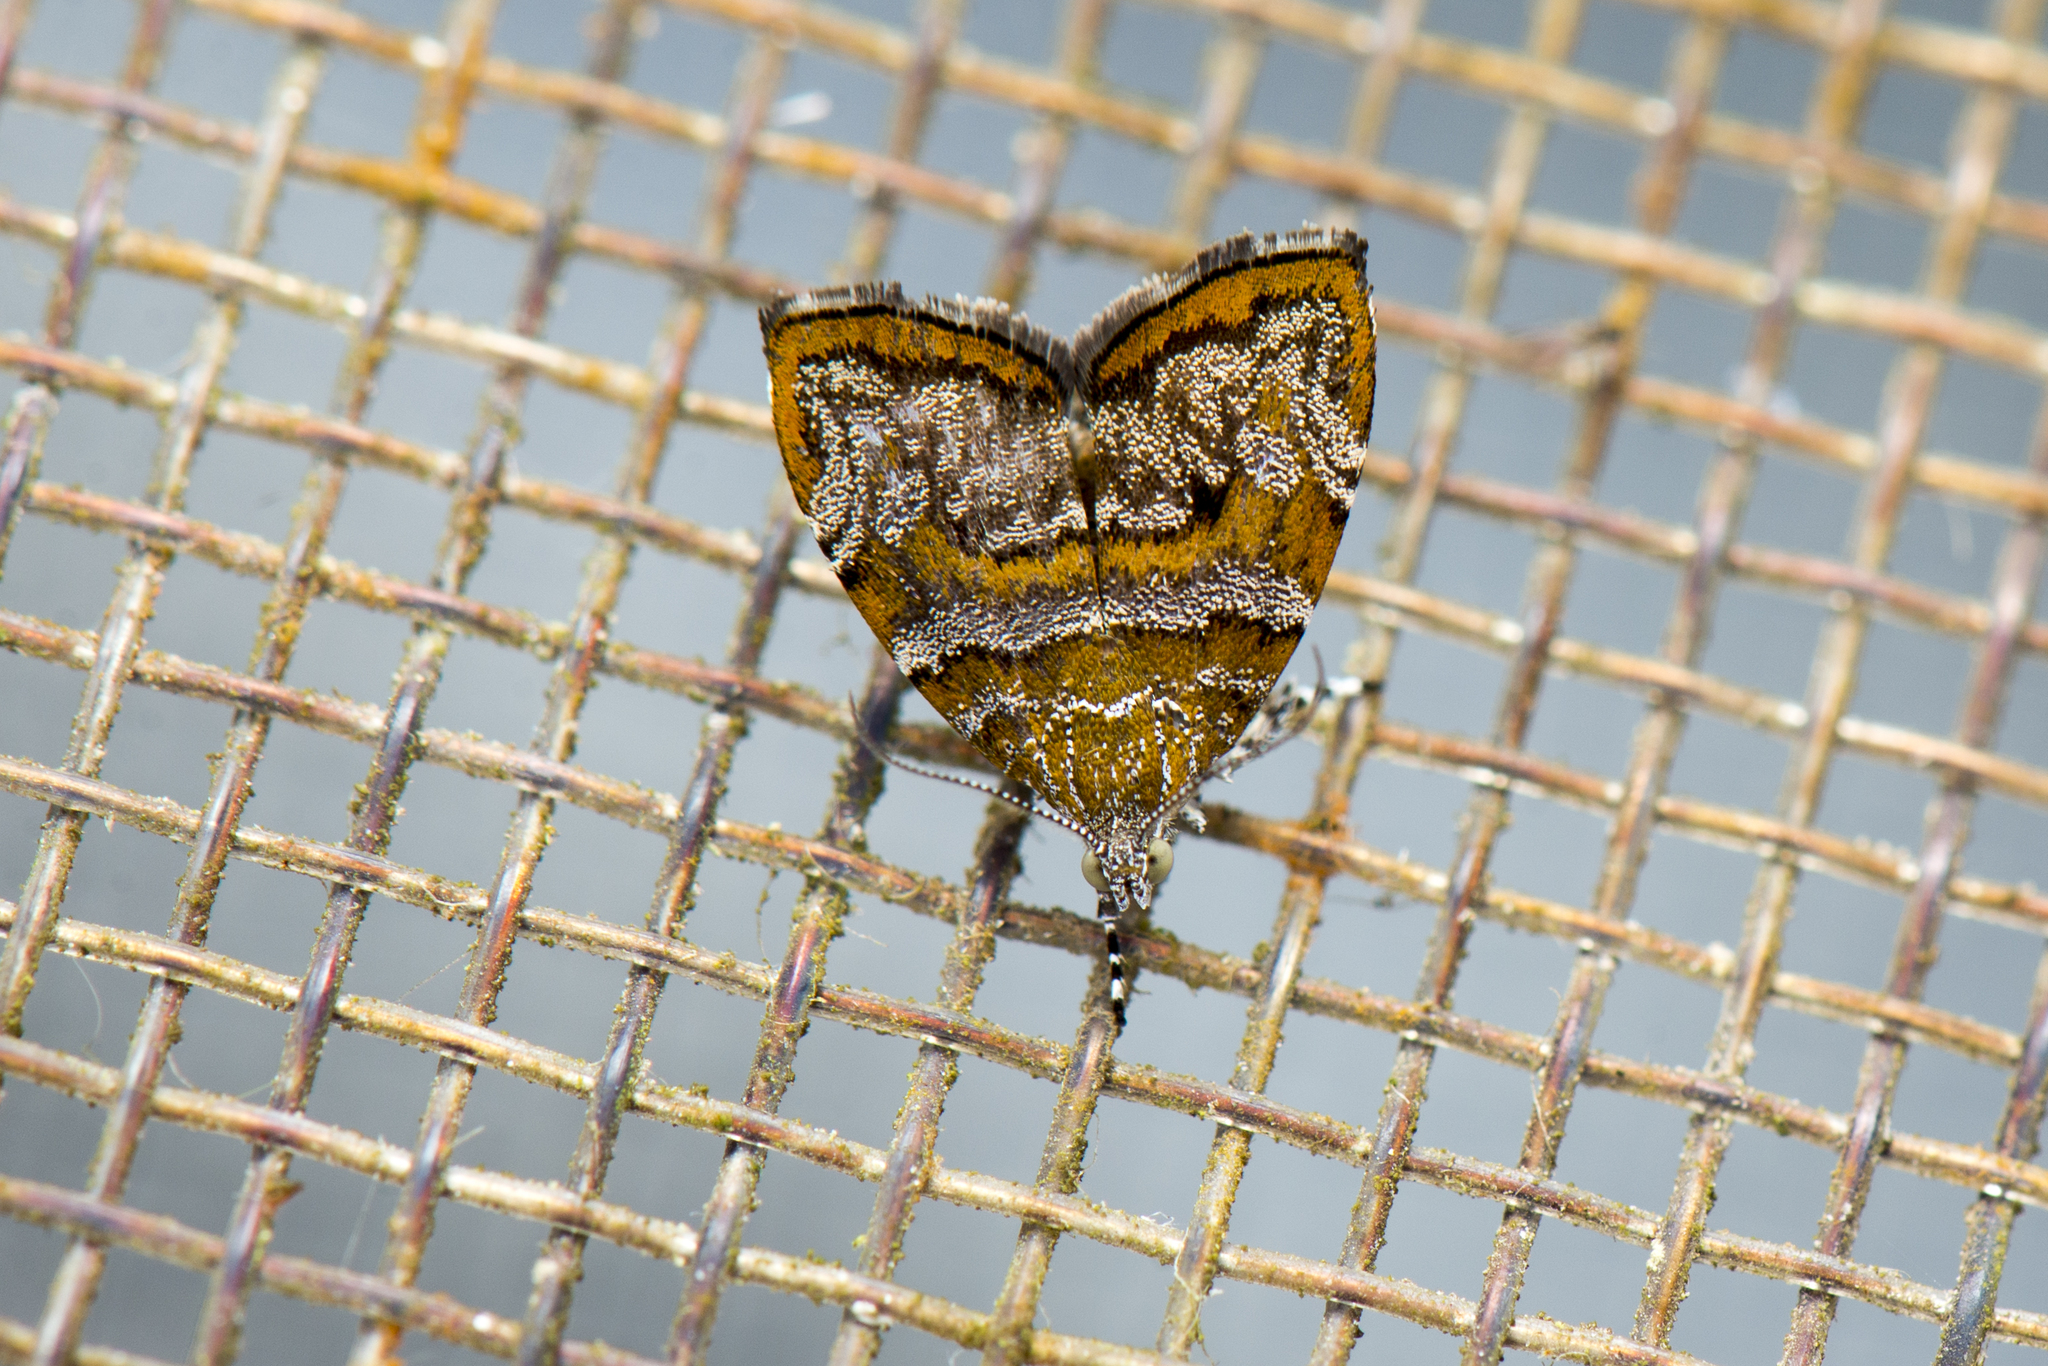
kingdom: Animalia
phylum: Arthropoda
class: Insecta
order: Lepidoptera
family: Choreutidae
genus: Choreutis
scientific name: Choreutis periploca
